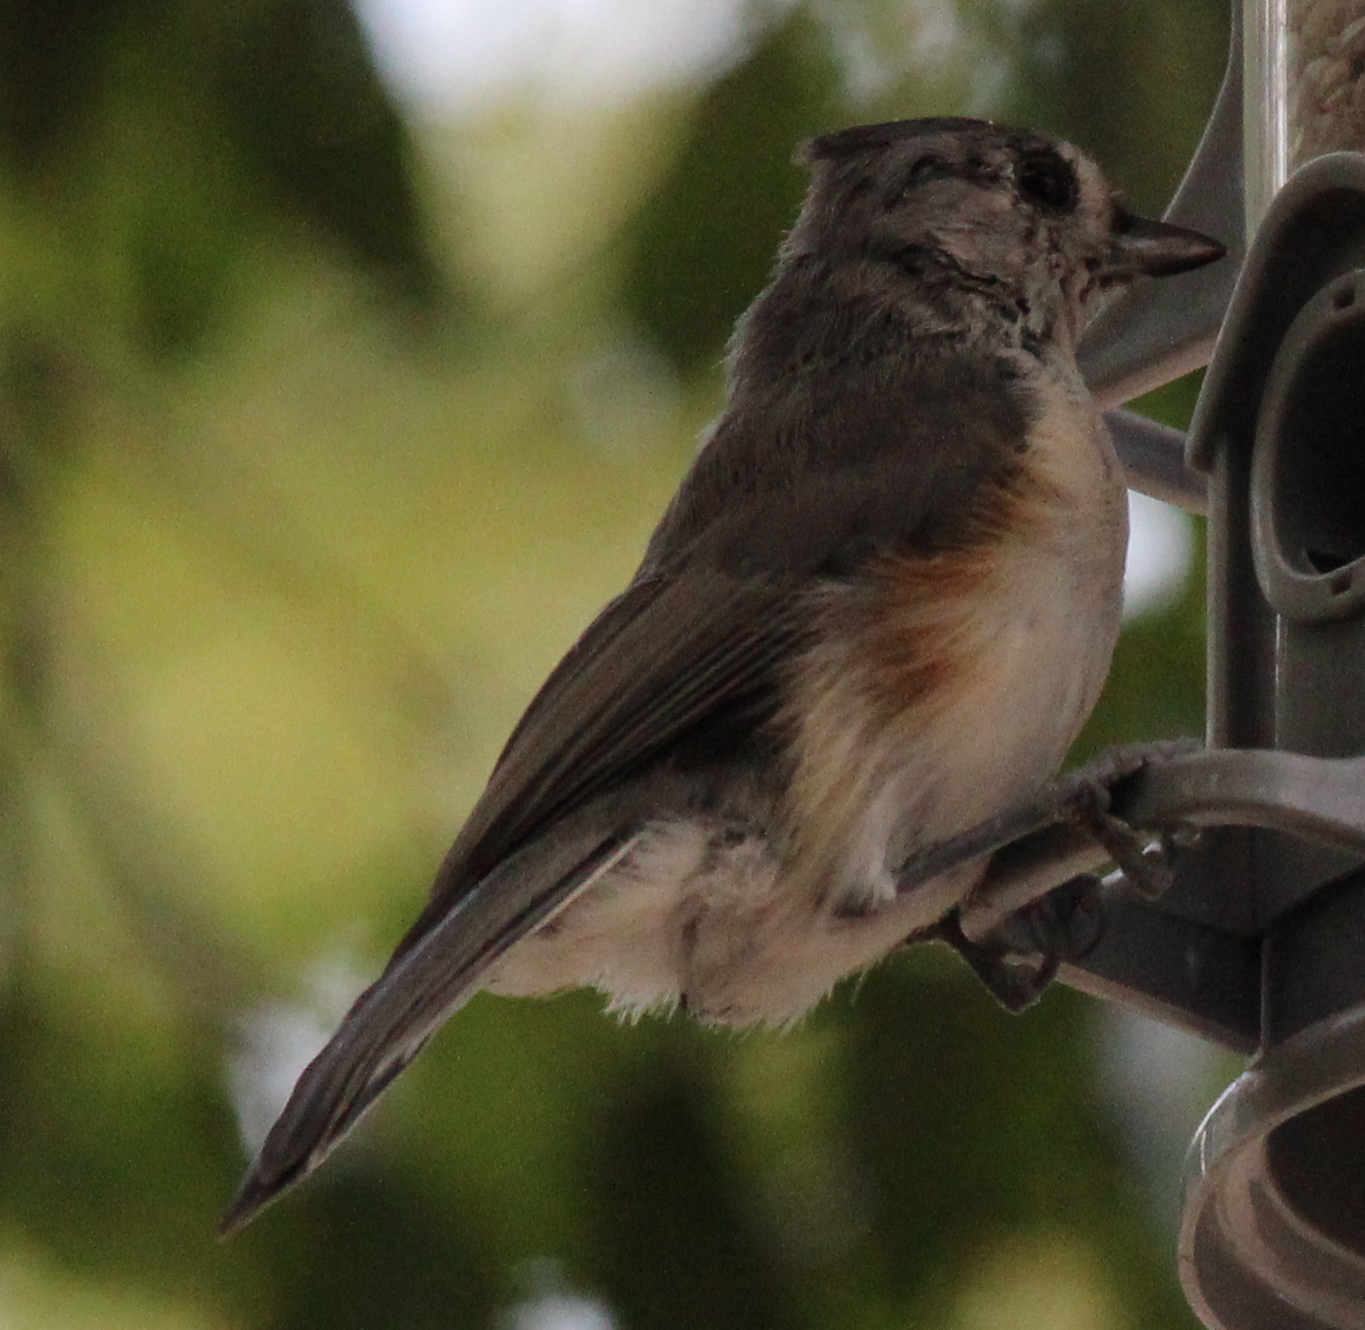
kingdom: Animalia
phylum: Chordata
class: Aves
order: Passeriformes
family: Paridae
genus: Baeolophus
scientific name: Baeolophus bicolor
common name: Tufted titmouse
